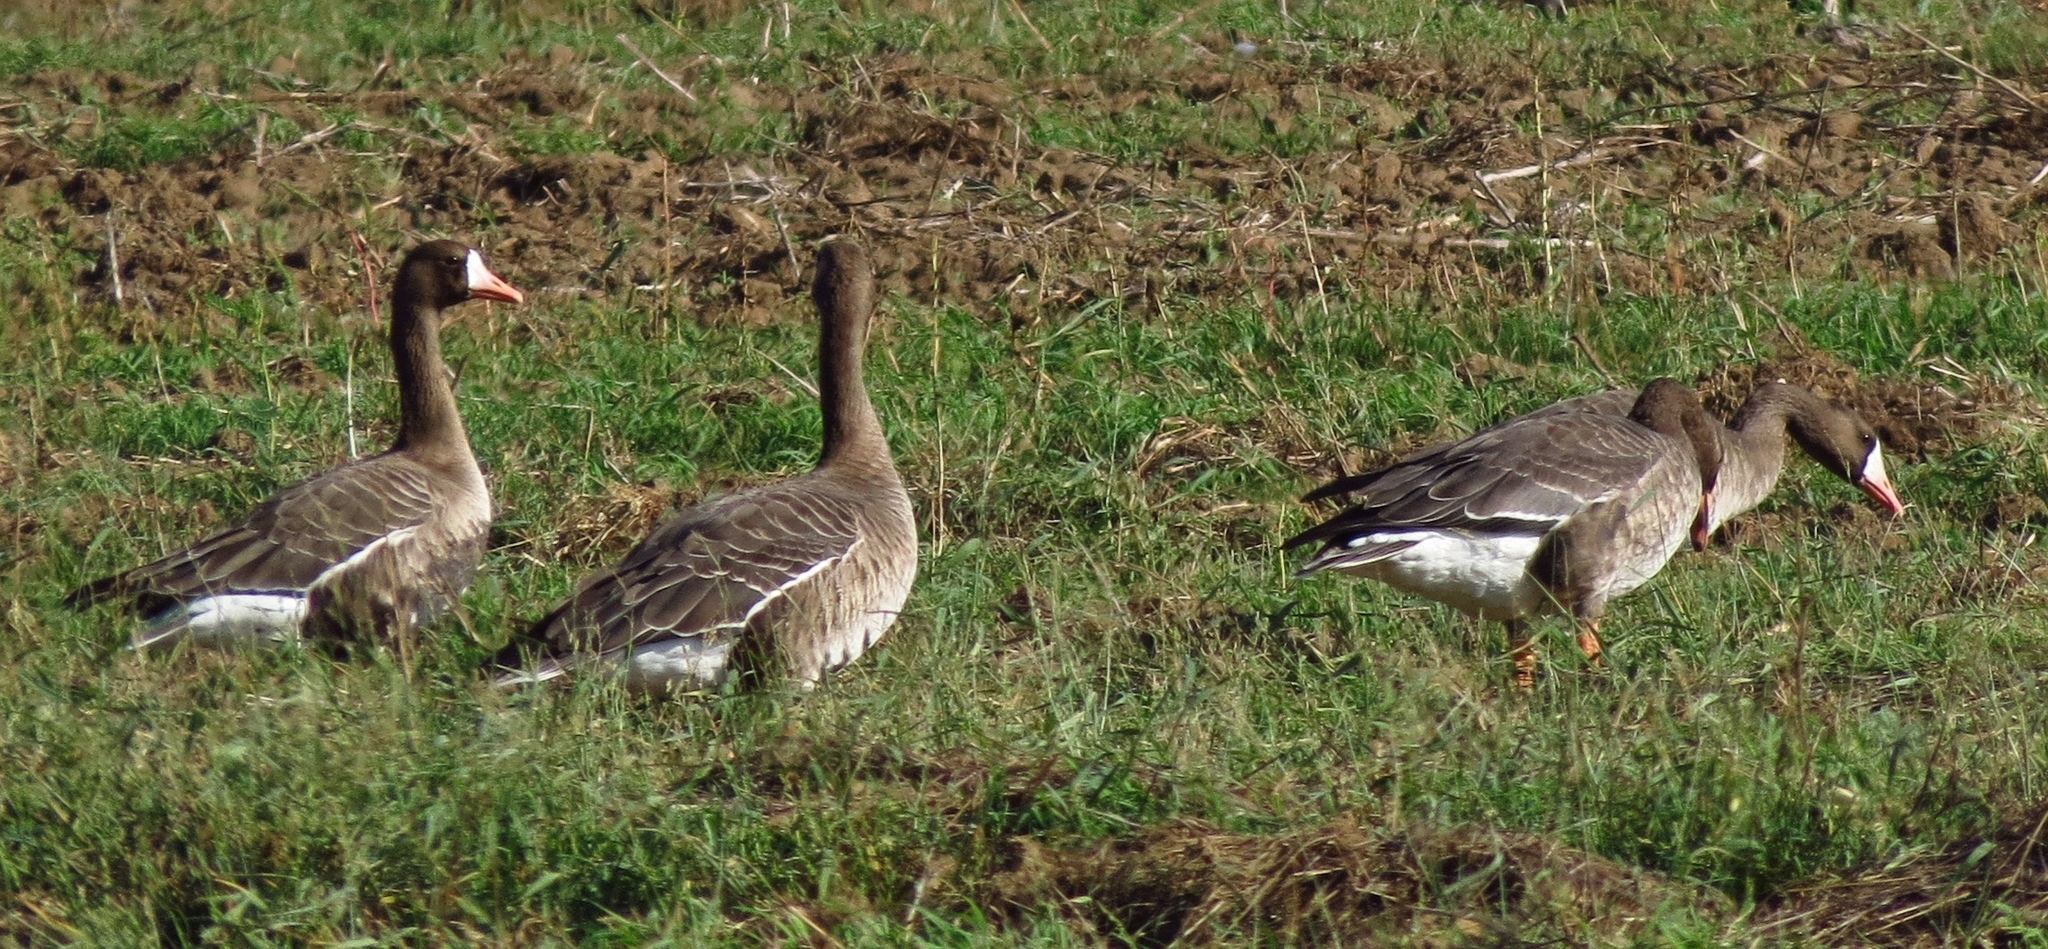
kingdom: Animalia
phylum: Chordata
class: Aves
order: Anseriformes
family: Anatidae
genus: Anser
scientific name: Anser albifrons
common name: Greater white-fronted goose
